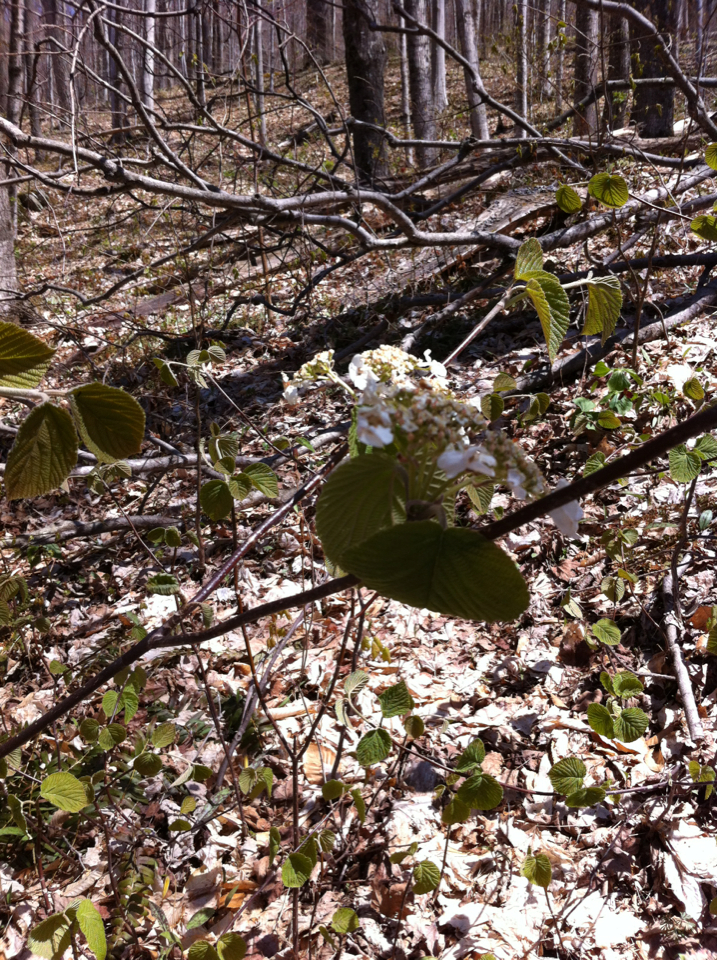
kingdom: Plantae
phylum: Tracheophyta
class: Magnoliopsida
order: Dipsacales
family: Viburnaceae
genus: Viburnum
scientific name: Viburnum lantanoides
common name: Hobblebush
